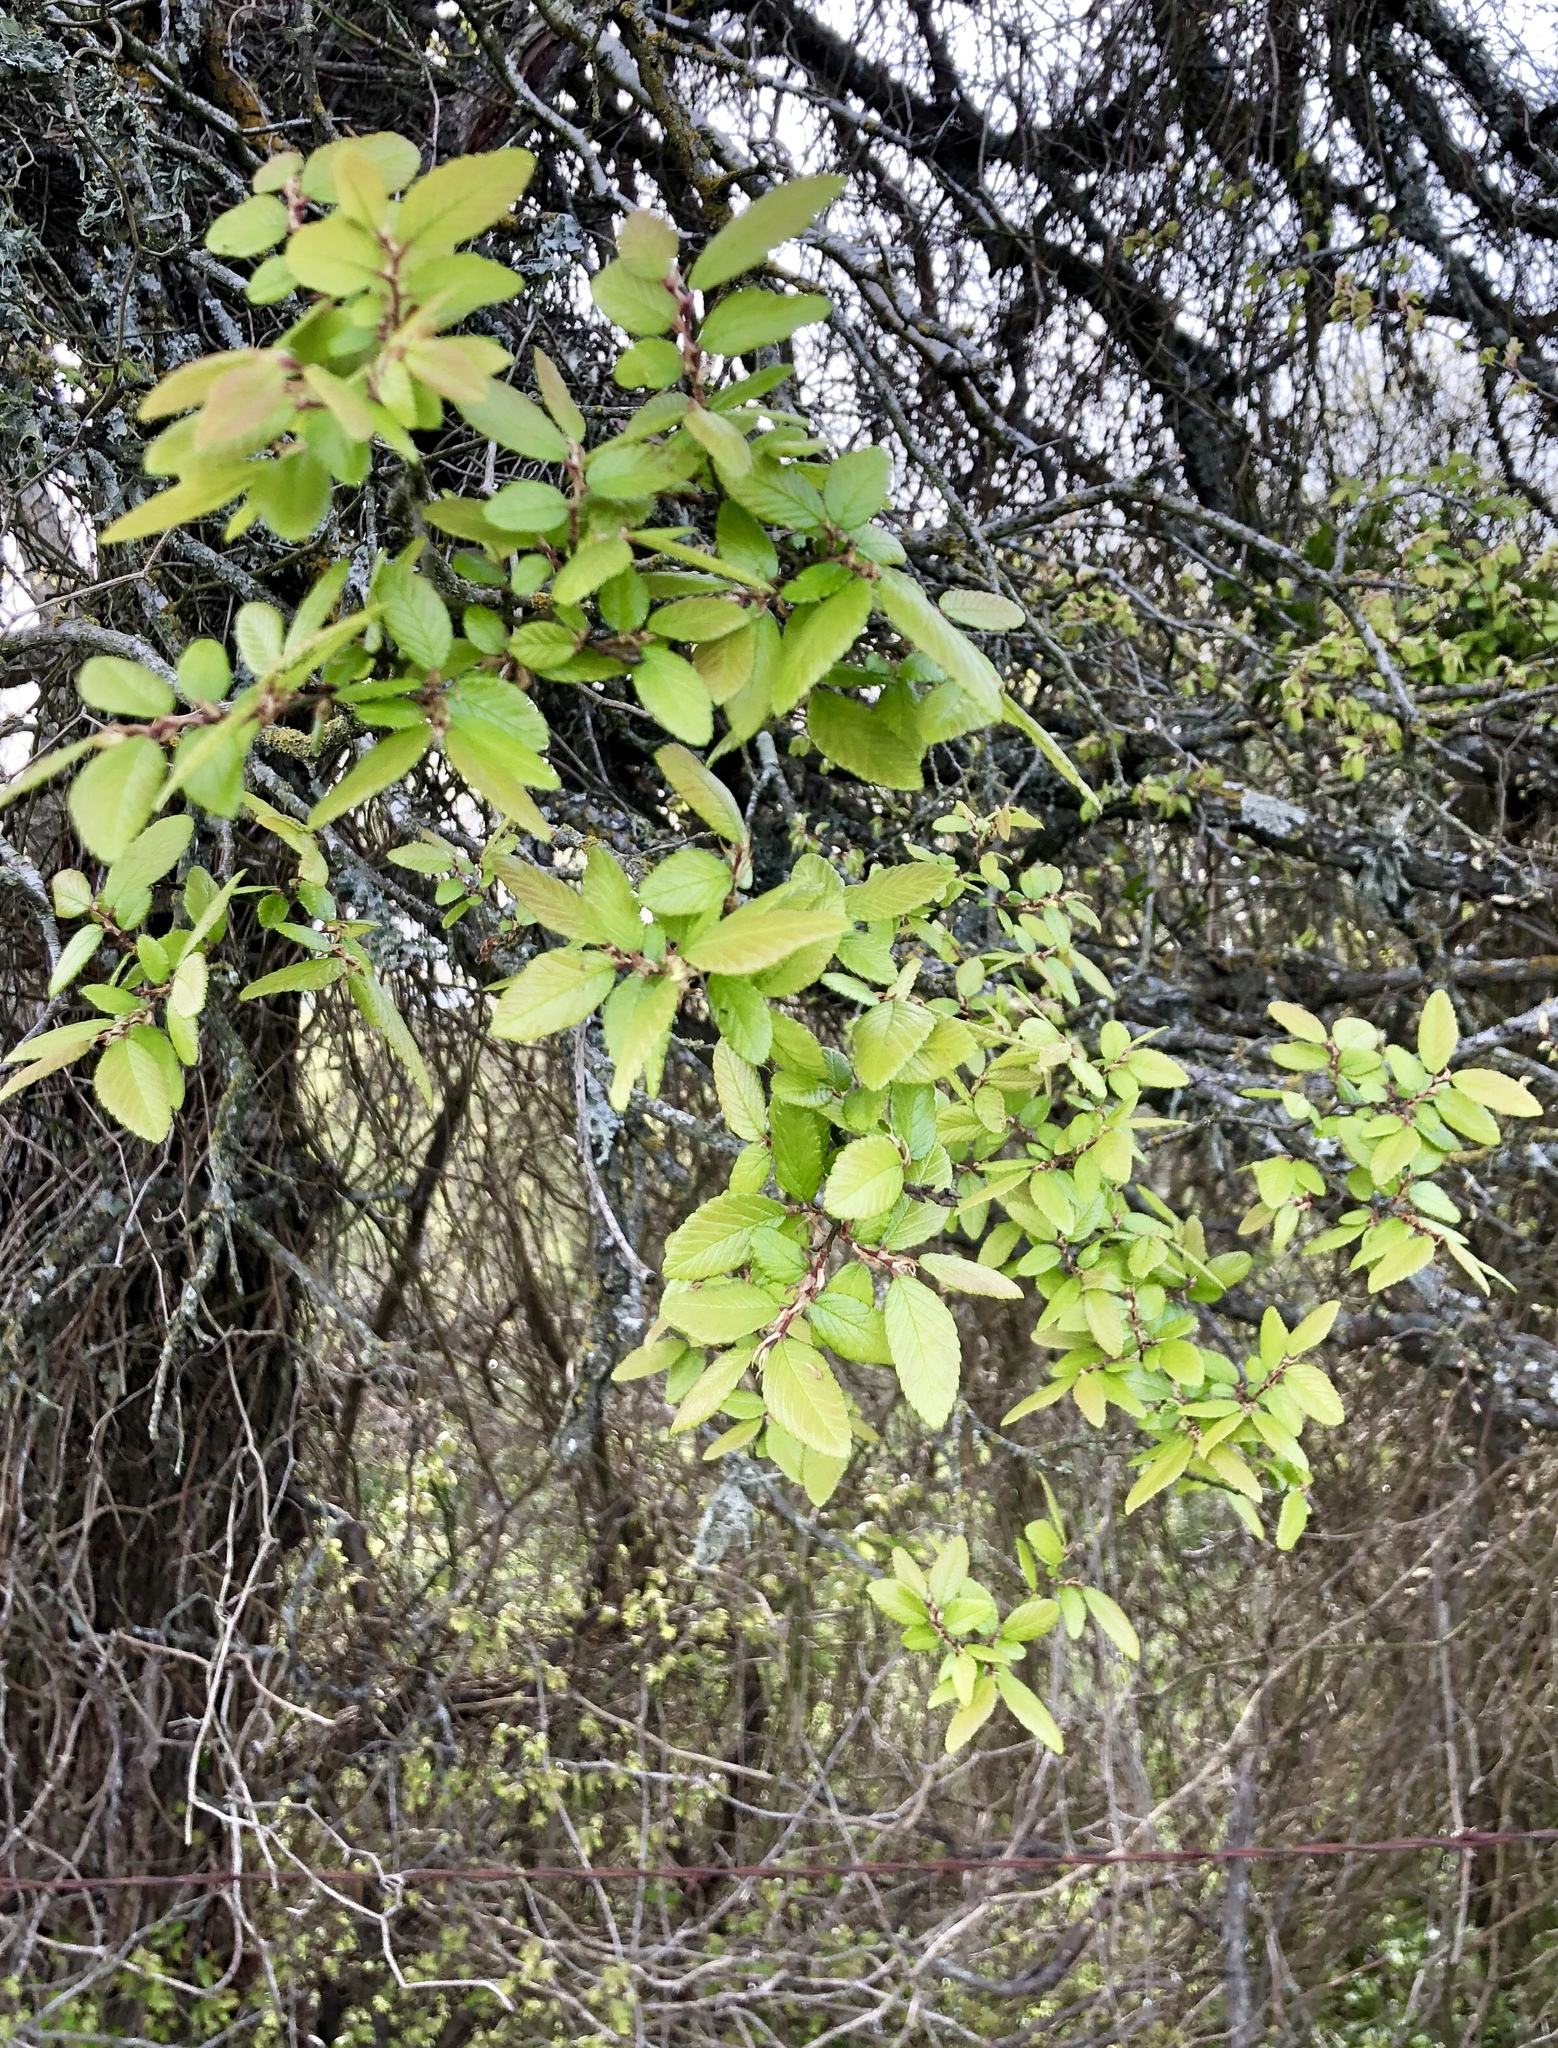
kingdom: Plantae
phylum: Tracheophyta
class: Magnoliopsida
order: Rosales
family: Ulmaceae
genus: Ulmus
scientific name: Ulmus crassifolia
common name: Basket elm
